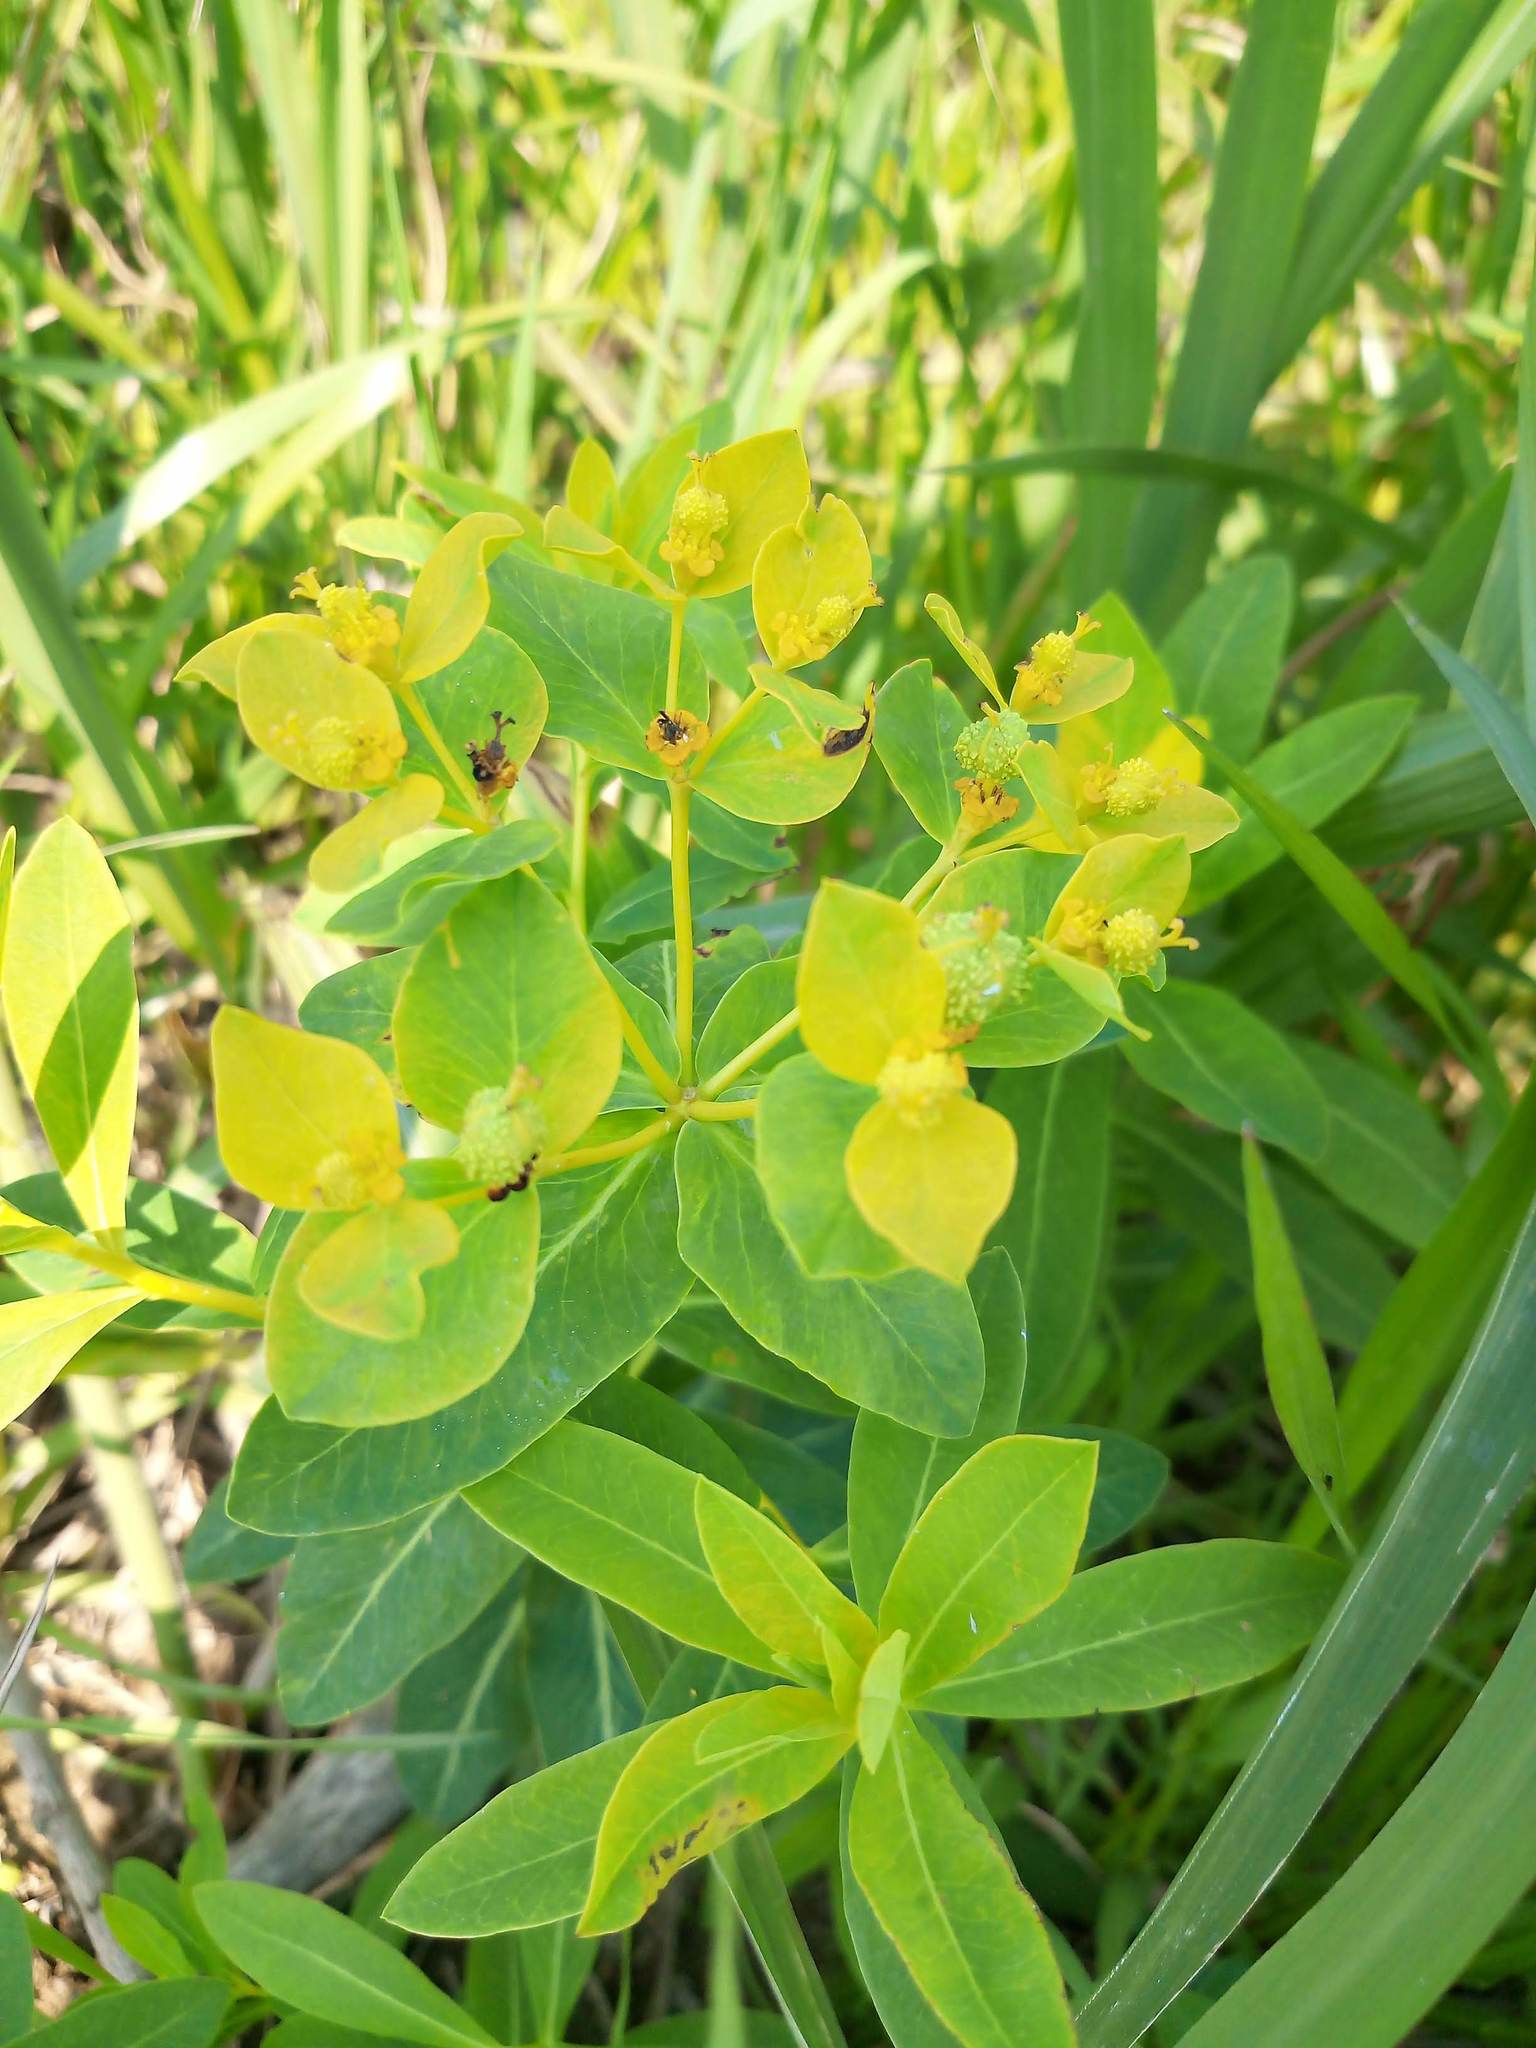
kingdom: Plantae
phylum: Tracheophyta
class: Magnoliopsida
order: Malpighiales
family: Euphorbiaceae
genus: Euphorbia
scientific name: Euphorbia adenochlora
